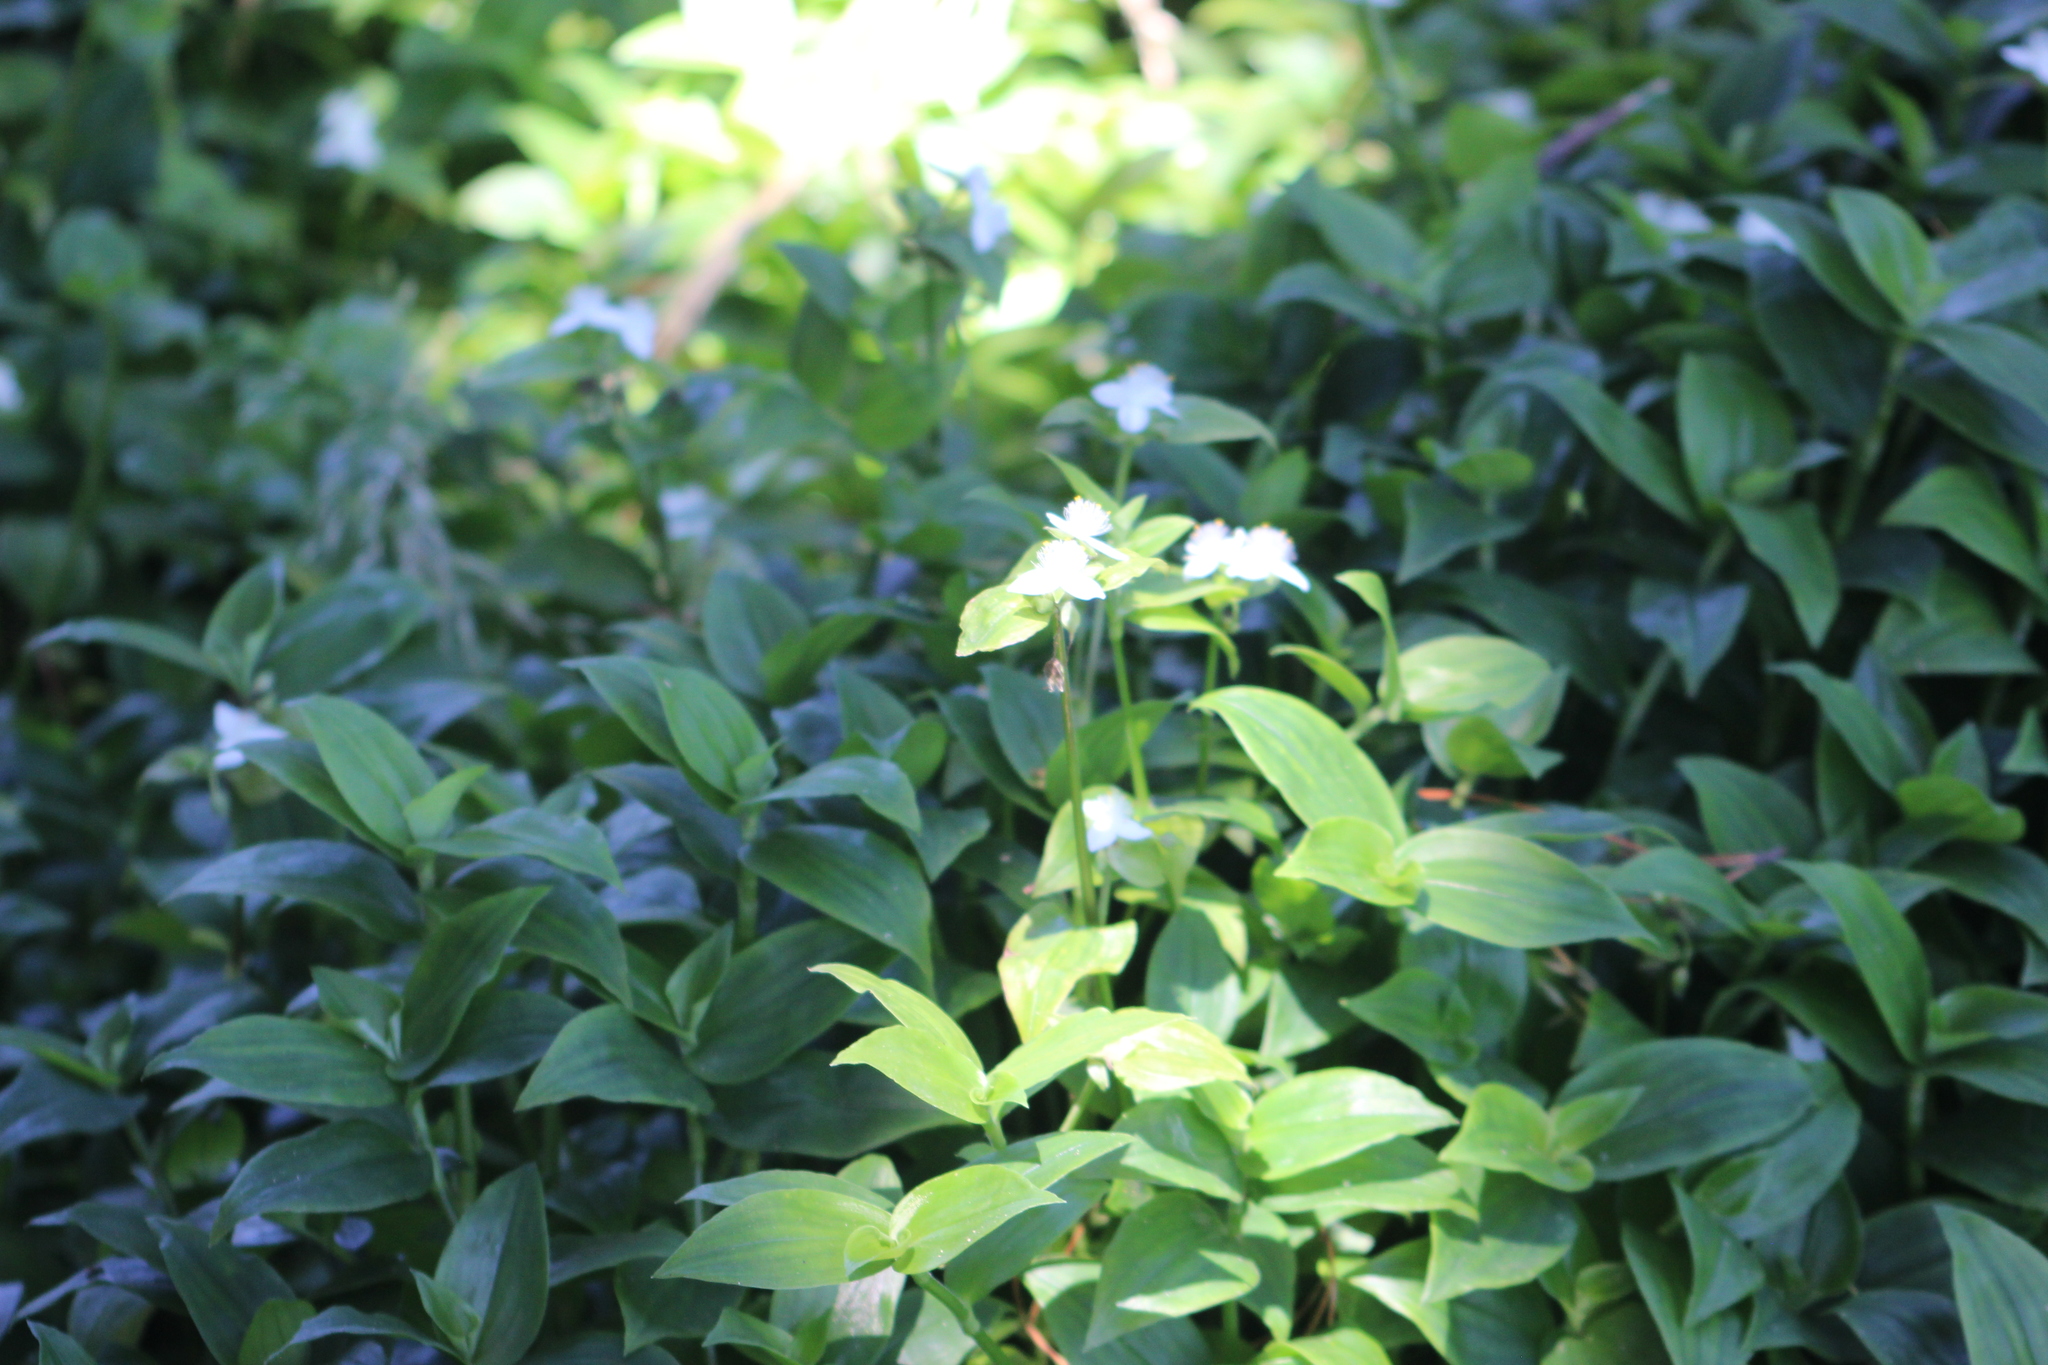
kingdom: Plantae
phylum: Tracheophyta
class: Liliopsida
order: Commelinales
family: Commelinaceae
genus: Tradescantia
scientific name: Tradescantia fluminensis
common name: Wandering-jew
